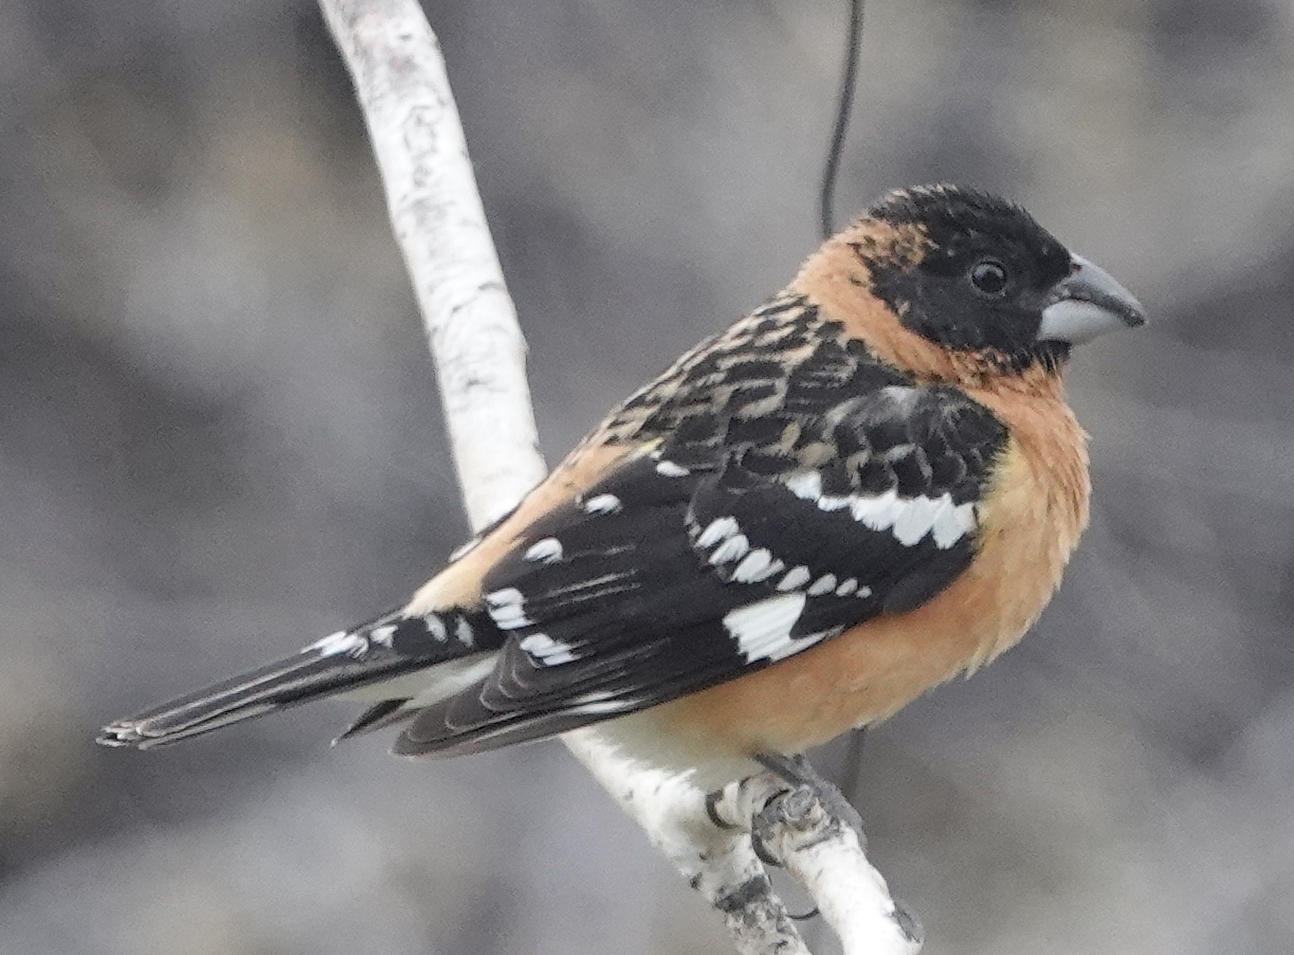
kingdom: Animalia
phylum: Chordata
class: Aves
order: Passeriformes
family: Cardinalidae
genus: Pheucticus
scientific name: Pheucticus melanocephalus
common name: Black-headed grosbeak
